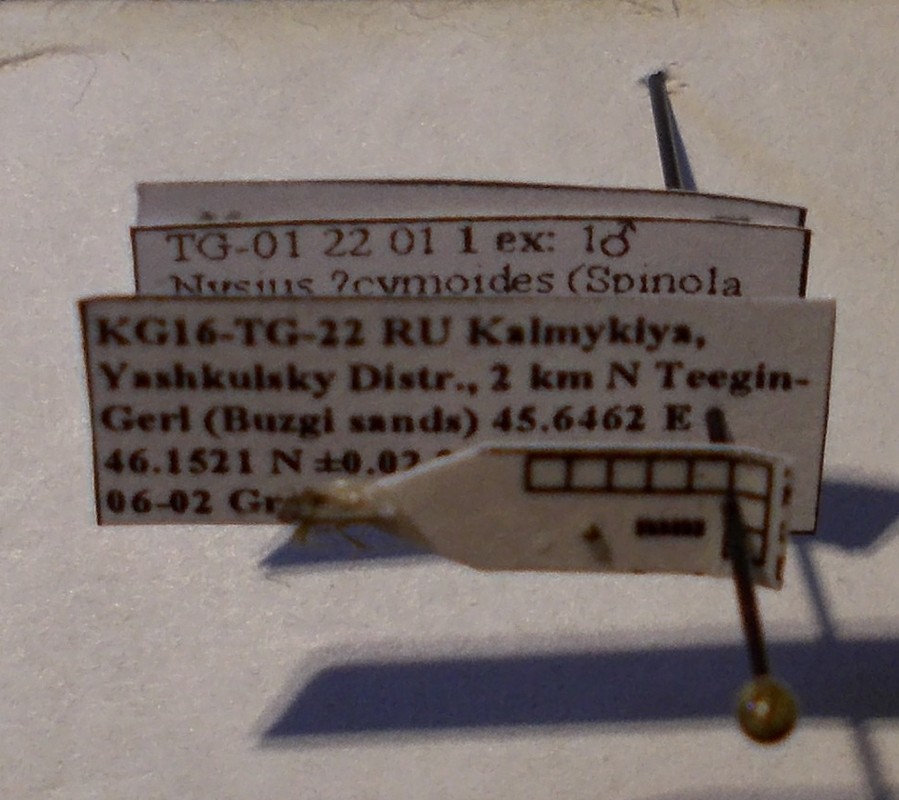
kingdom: Animalia
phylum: Arthropoda
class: Insecta
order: Hemiptera
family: Lygaeidae
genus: Nysius
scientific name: Nysius cymoides
